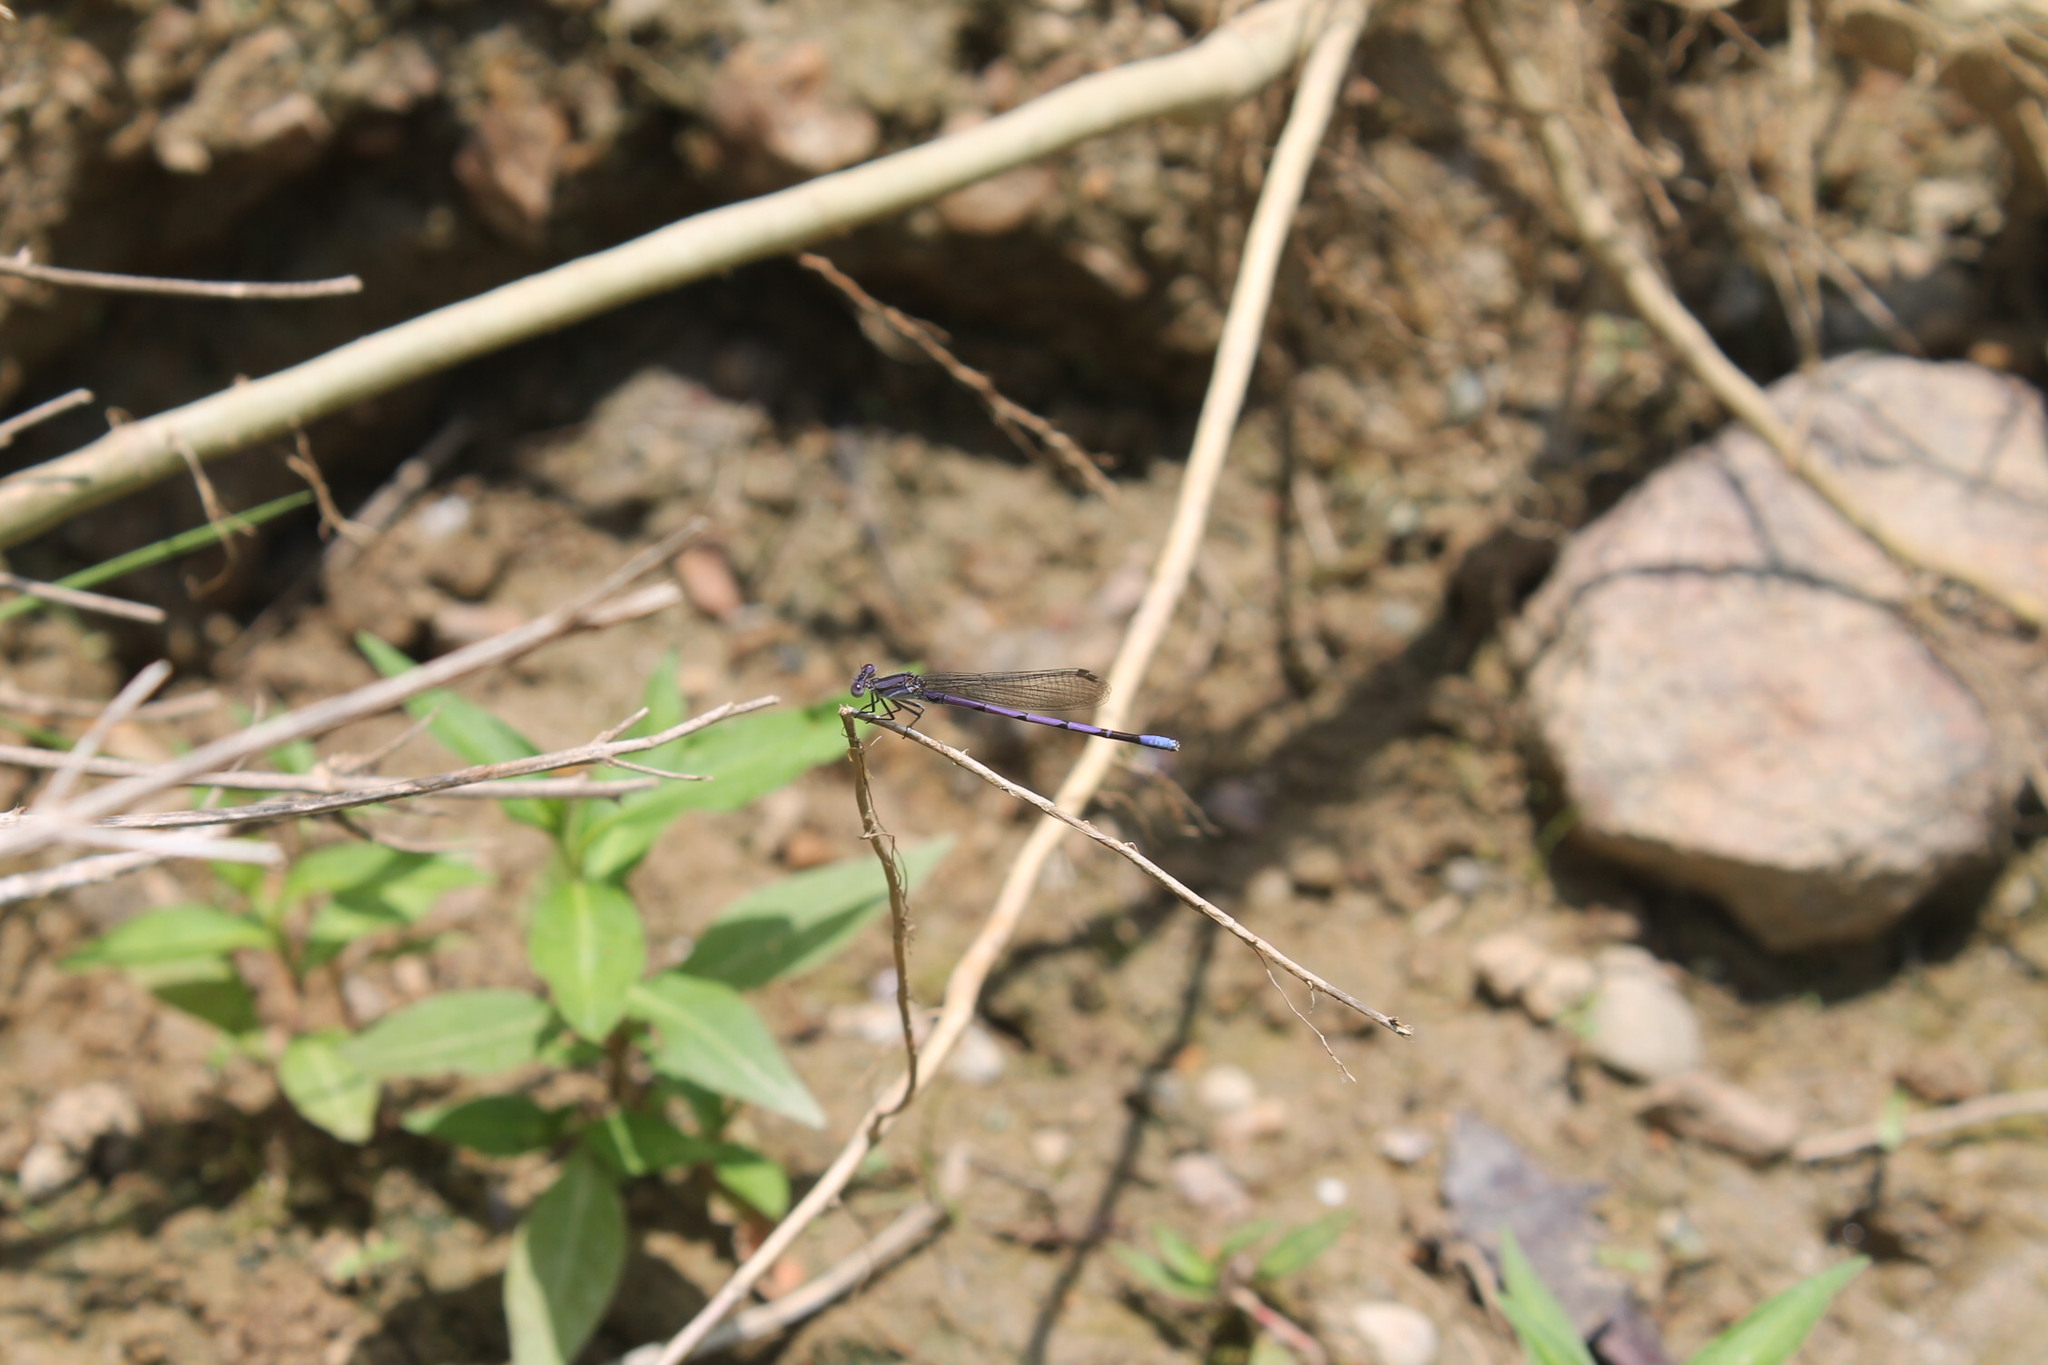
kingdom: Animalia
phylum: Arthropoda
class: Insecta
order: Odonata
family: Coenagrionidae
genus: Argia
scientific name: Argia fumipennis
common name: Variable dancer
